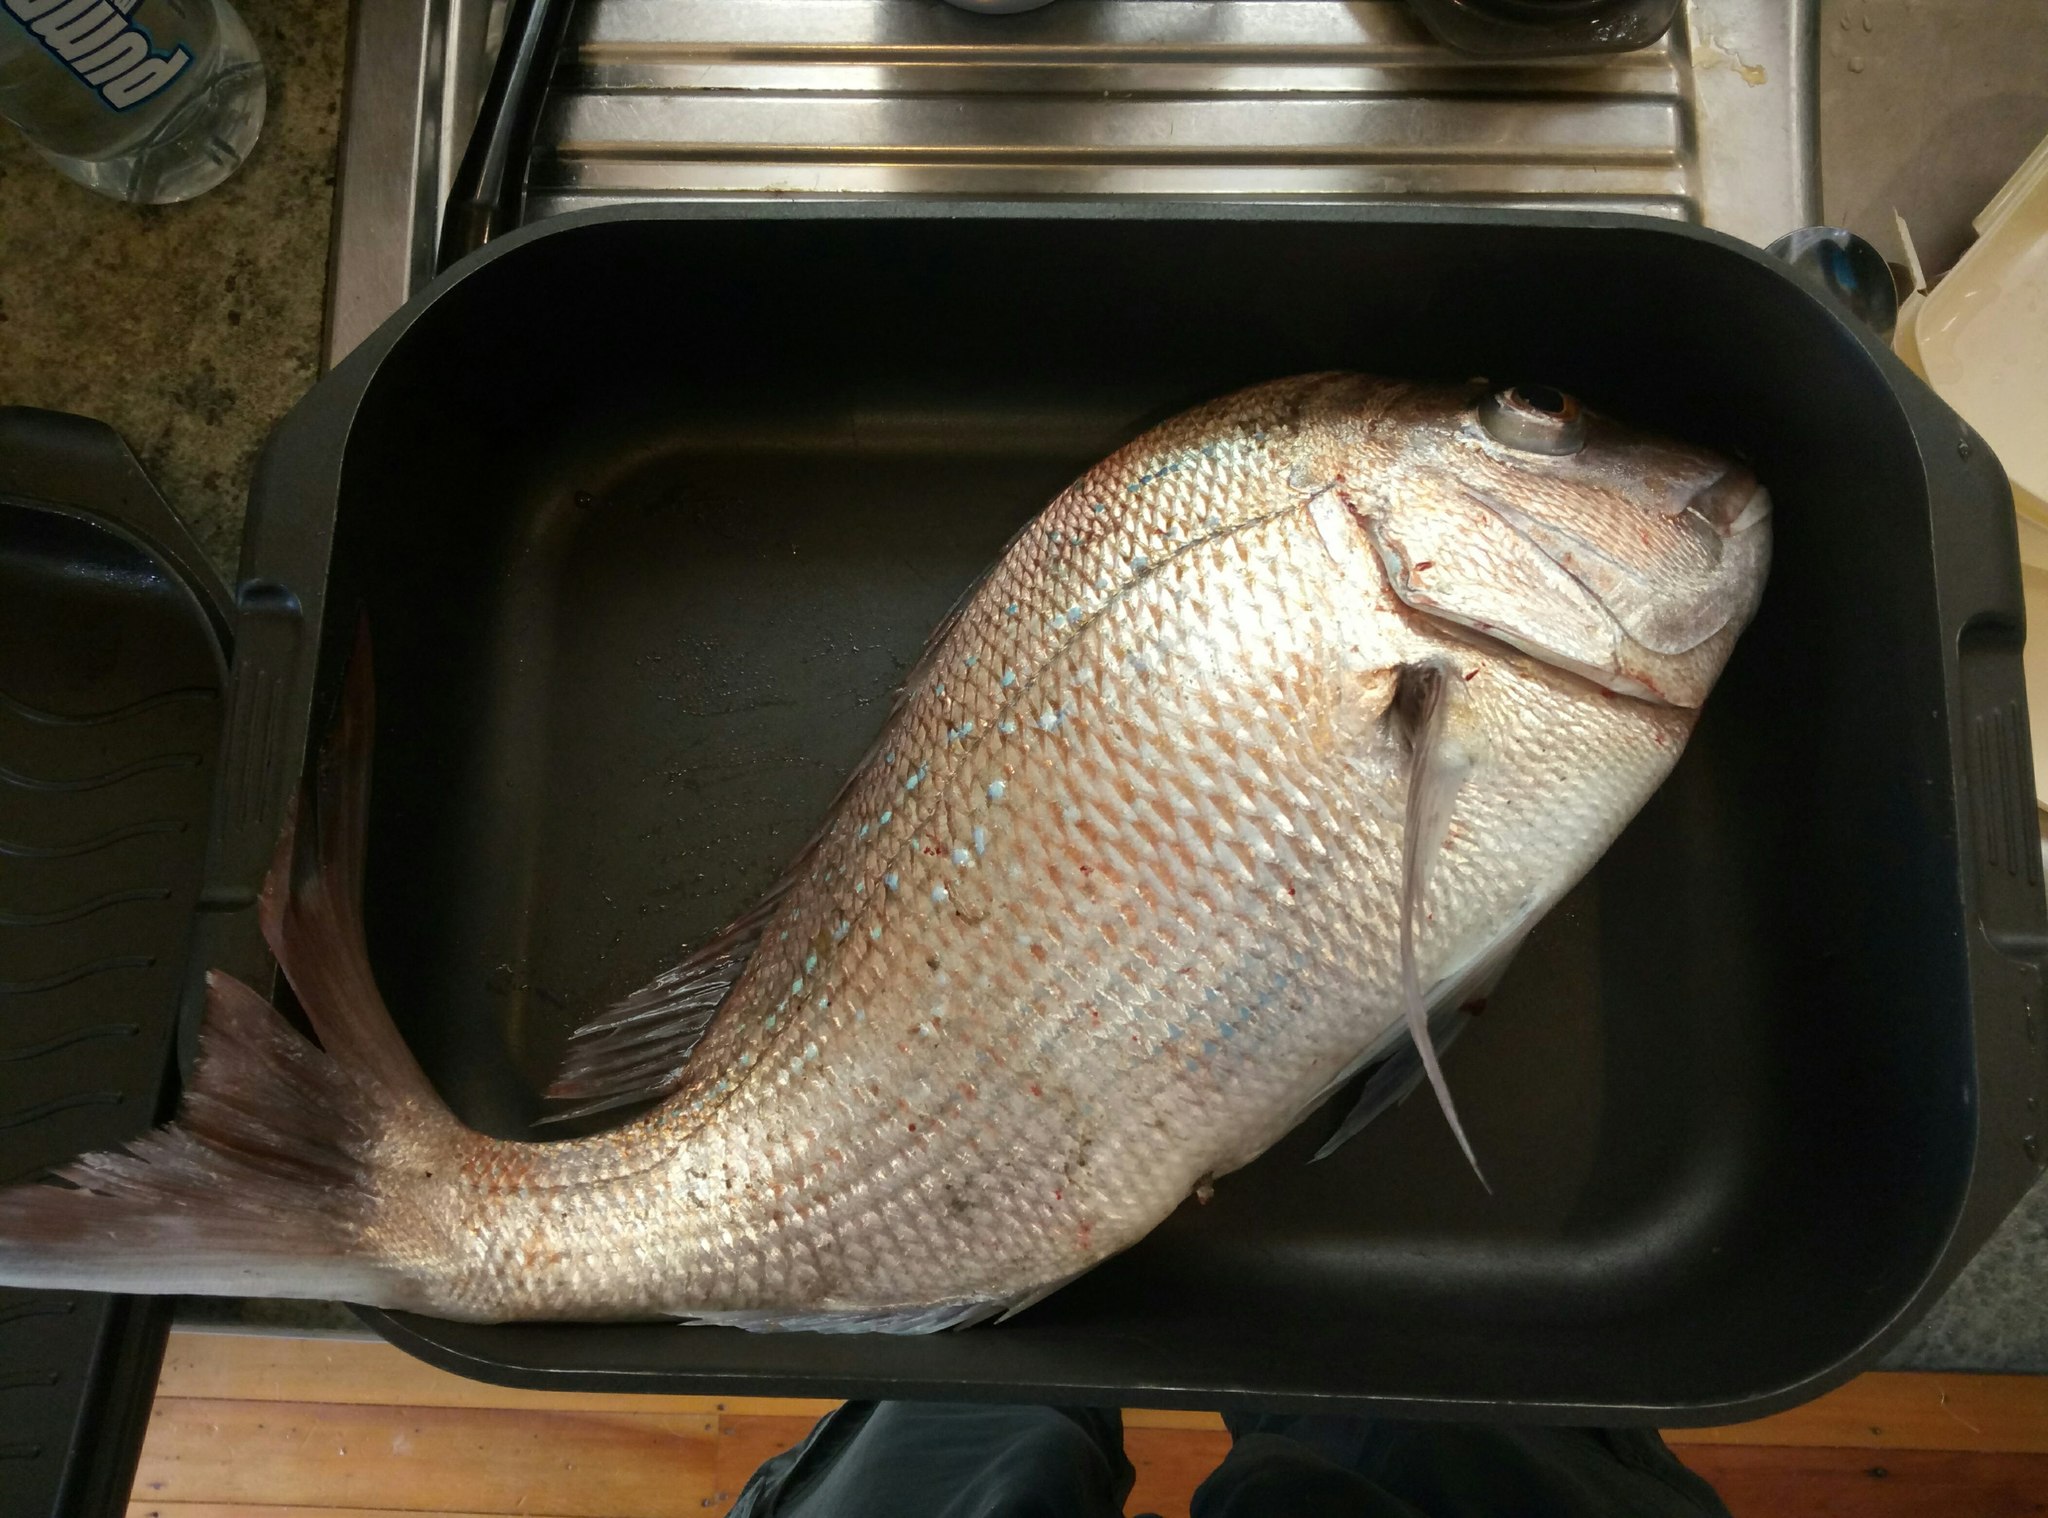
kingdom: Animalia
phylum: Chordata
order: Perciformes
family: Sparidae
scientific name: Sparidae
